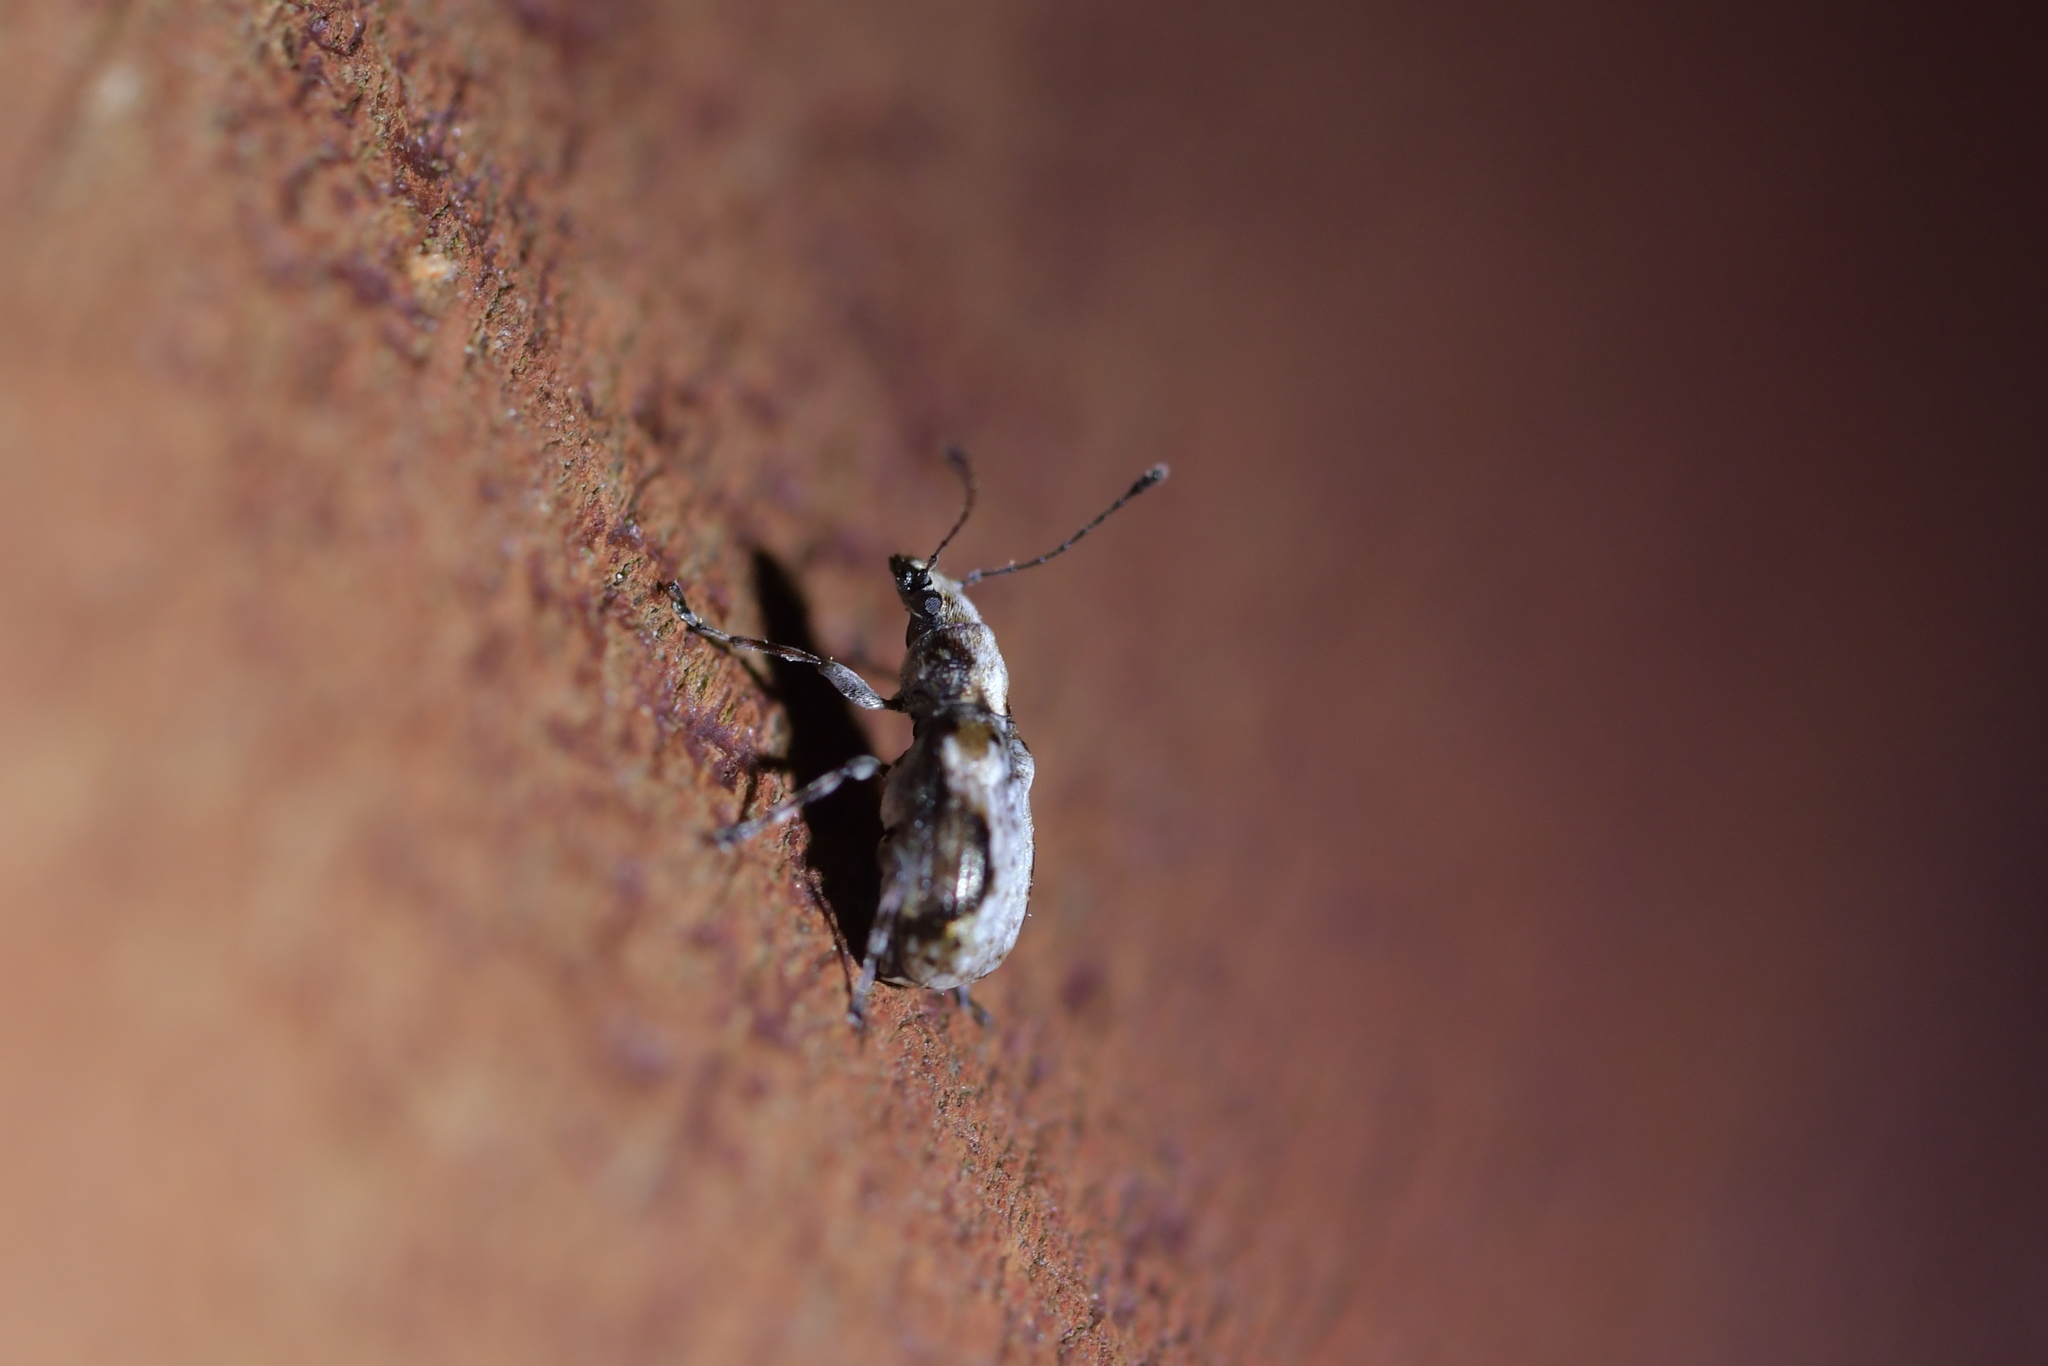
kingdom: Animalia
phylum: Arthropoda
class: Insecta
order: Coleoptera
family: Anthribidae
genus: Isanthribus
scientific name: Isanthribus
